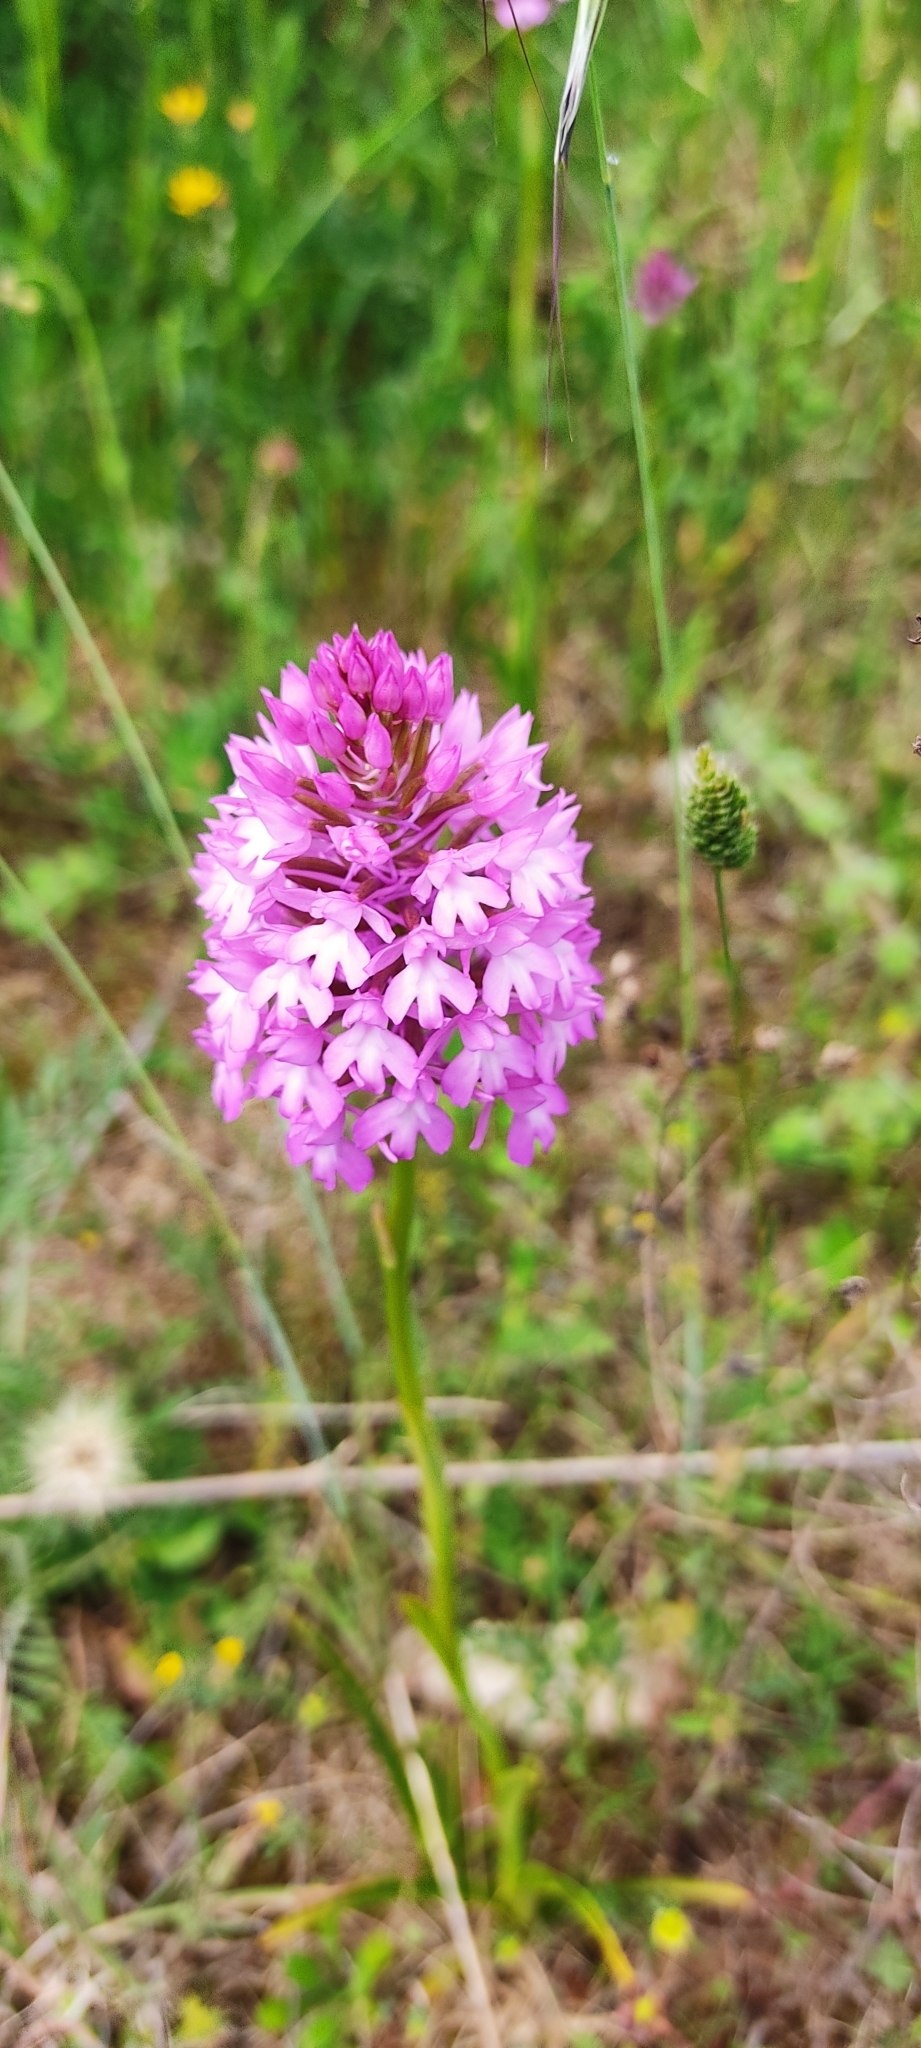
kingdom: Plantae
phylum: Tracheophyta
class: Liliopsida
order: Asparagales
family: Orchidaceae
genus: Anacamptis
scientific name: Anacamptis pyramidalis
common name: Pyramidal orchid
